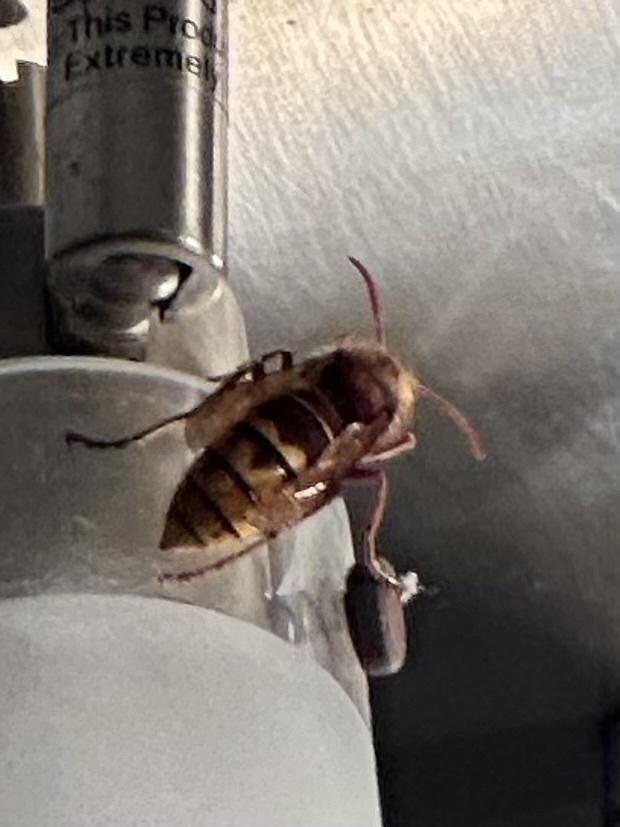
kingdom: Animalia
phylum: Arthropoda
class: Insecta
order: Hymenoptera
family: Vespidae
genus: Vespa
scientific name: Vespa crabro
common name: Hornet
